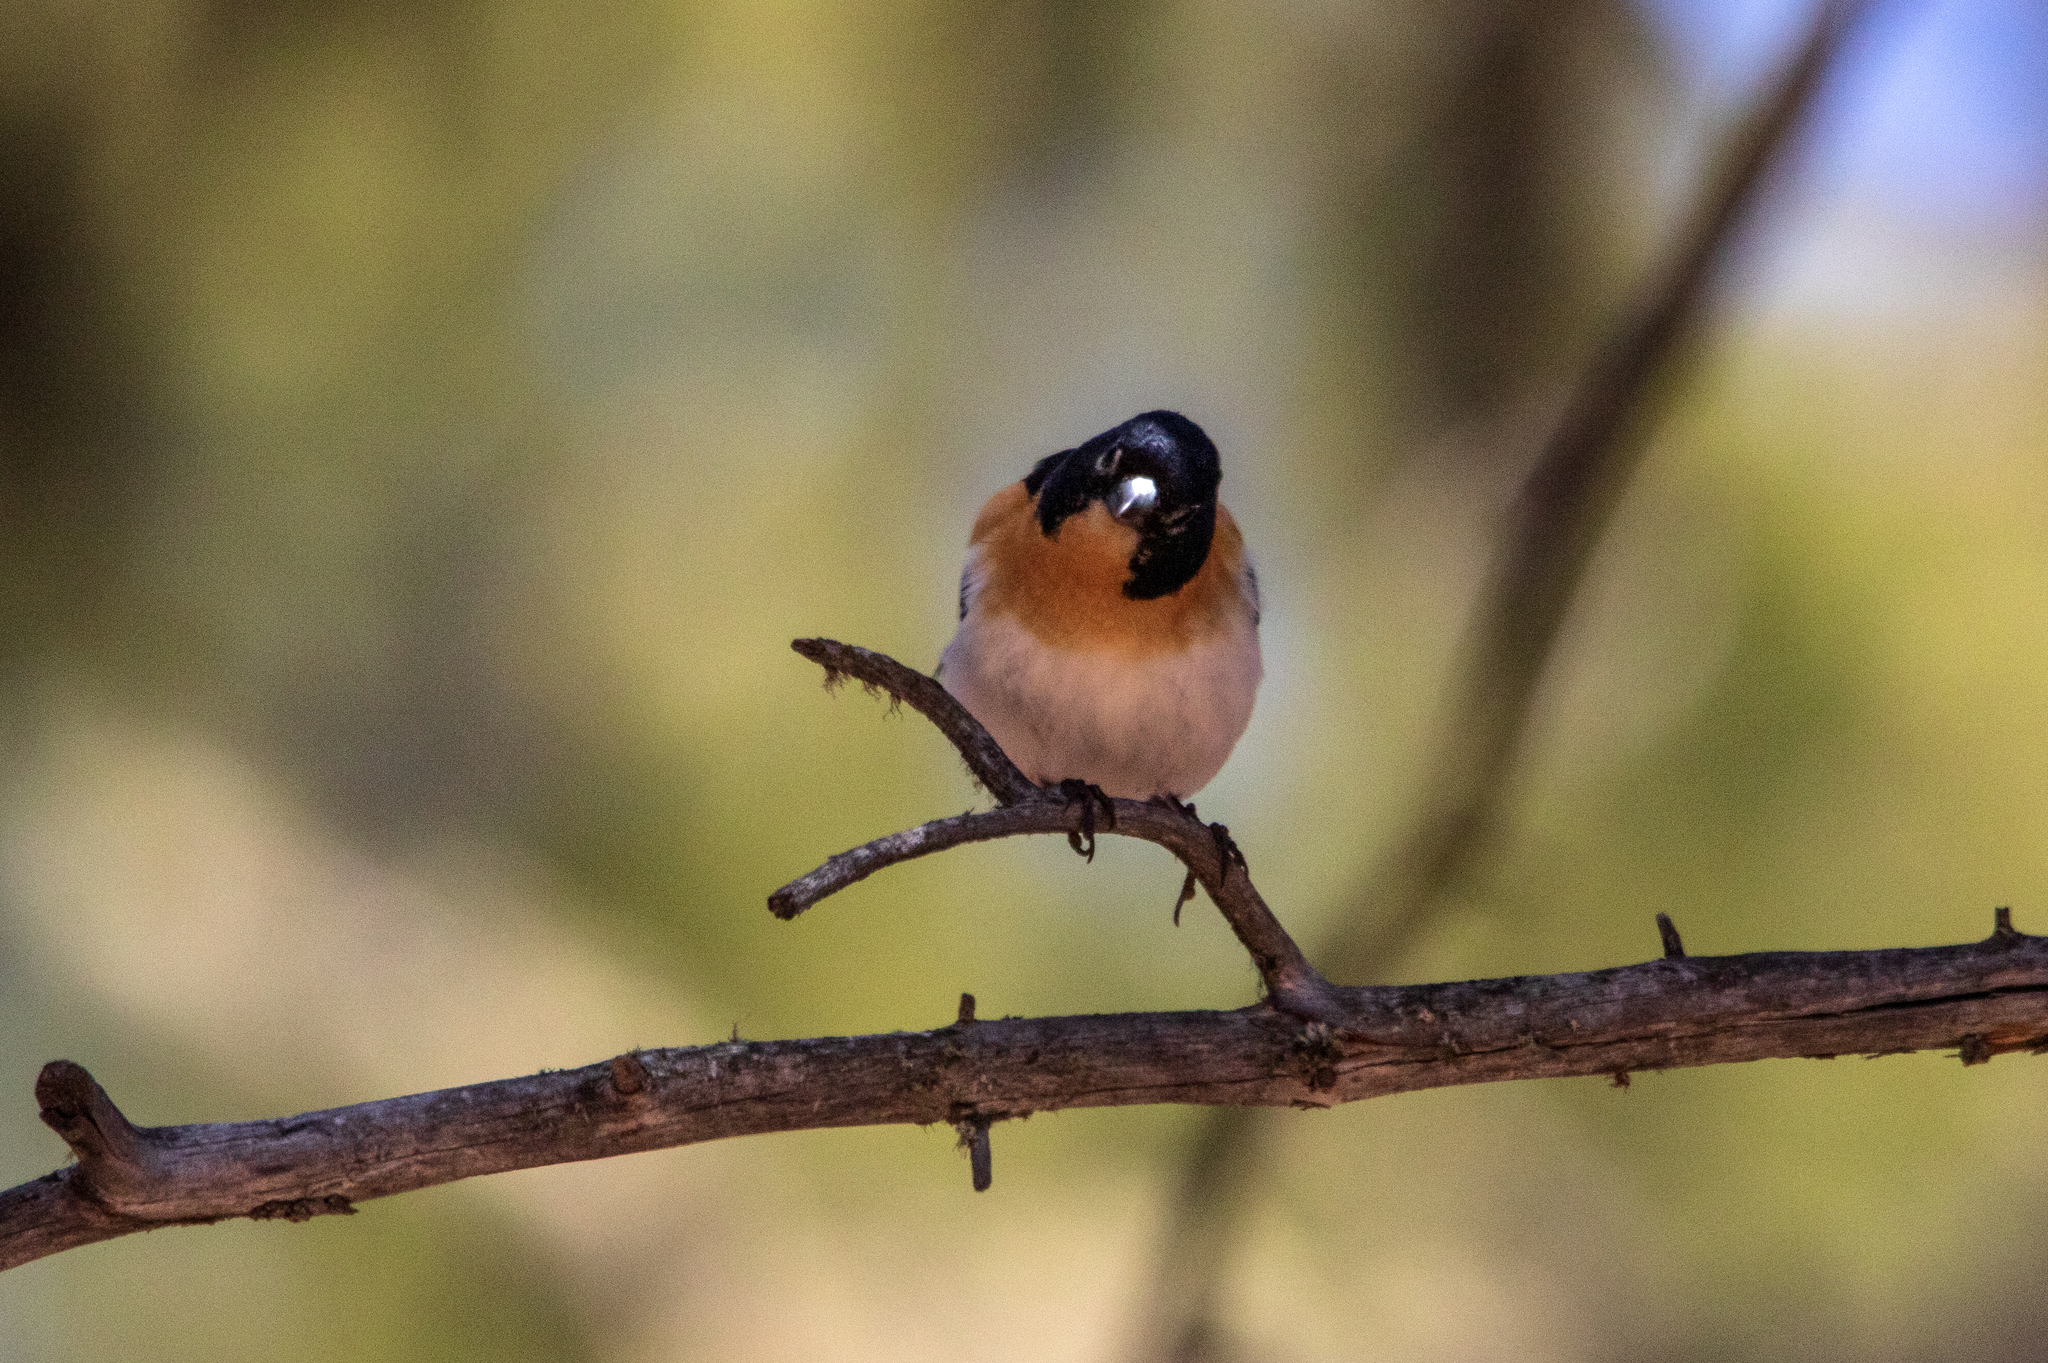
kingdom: Animalia
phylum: Chordata
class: Aves
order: Passeriformes
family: Fringillidae
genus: Fringilla
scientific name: Fringilla montifringilla
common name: Brambling
